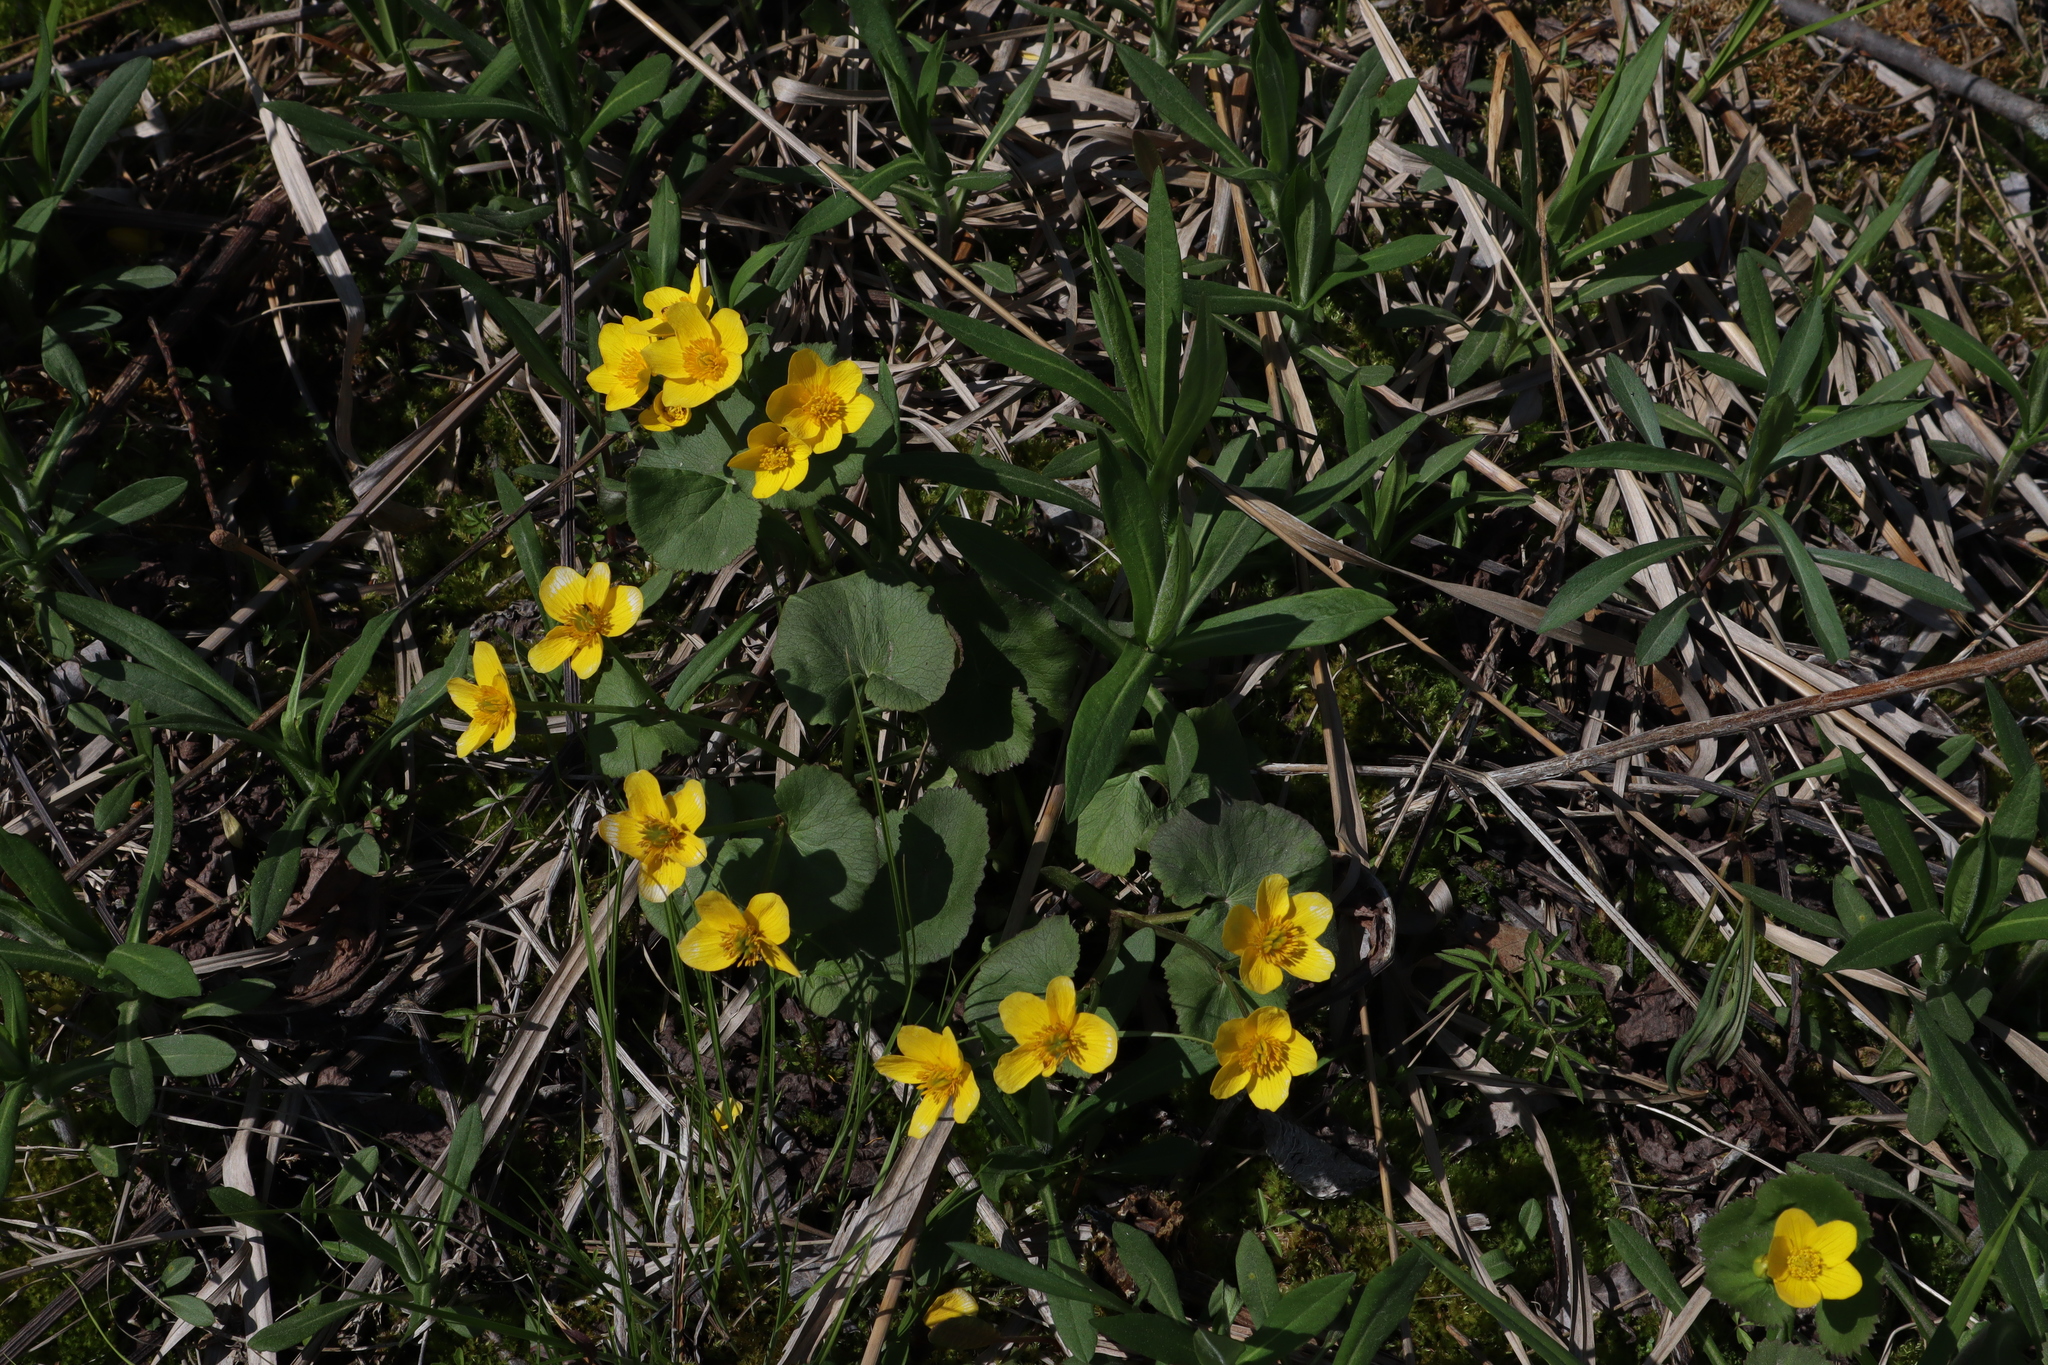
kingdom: Plantae
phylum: Tracheophyta
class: Magnoliopsida
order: Ranunculales
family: Ranunculaceae
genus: Caltha
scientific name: Caltha palustris
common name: Marsh marigold
